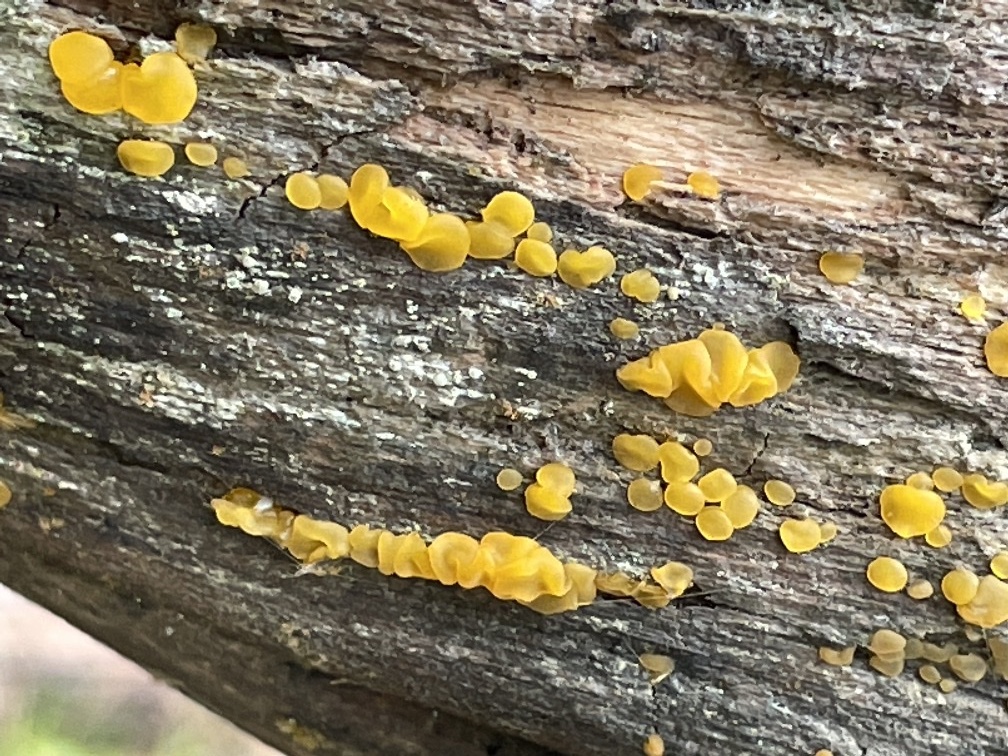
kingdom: Fungi
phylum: Ascomycota
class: Leotiomycetes
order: Helotiales
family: Pezizellaceae
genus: Calycina
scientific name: Calycina citrina
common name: Yellow fairy cups
